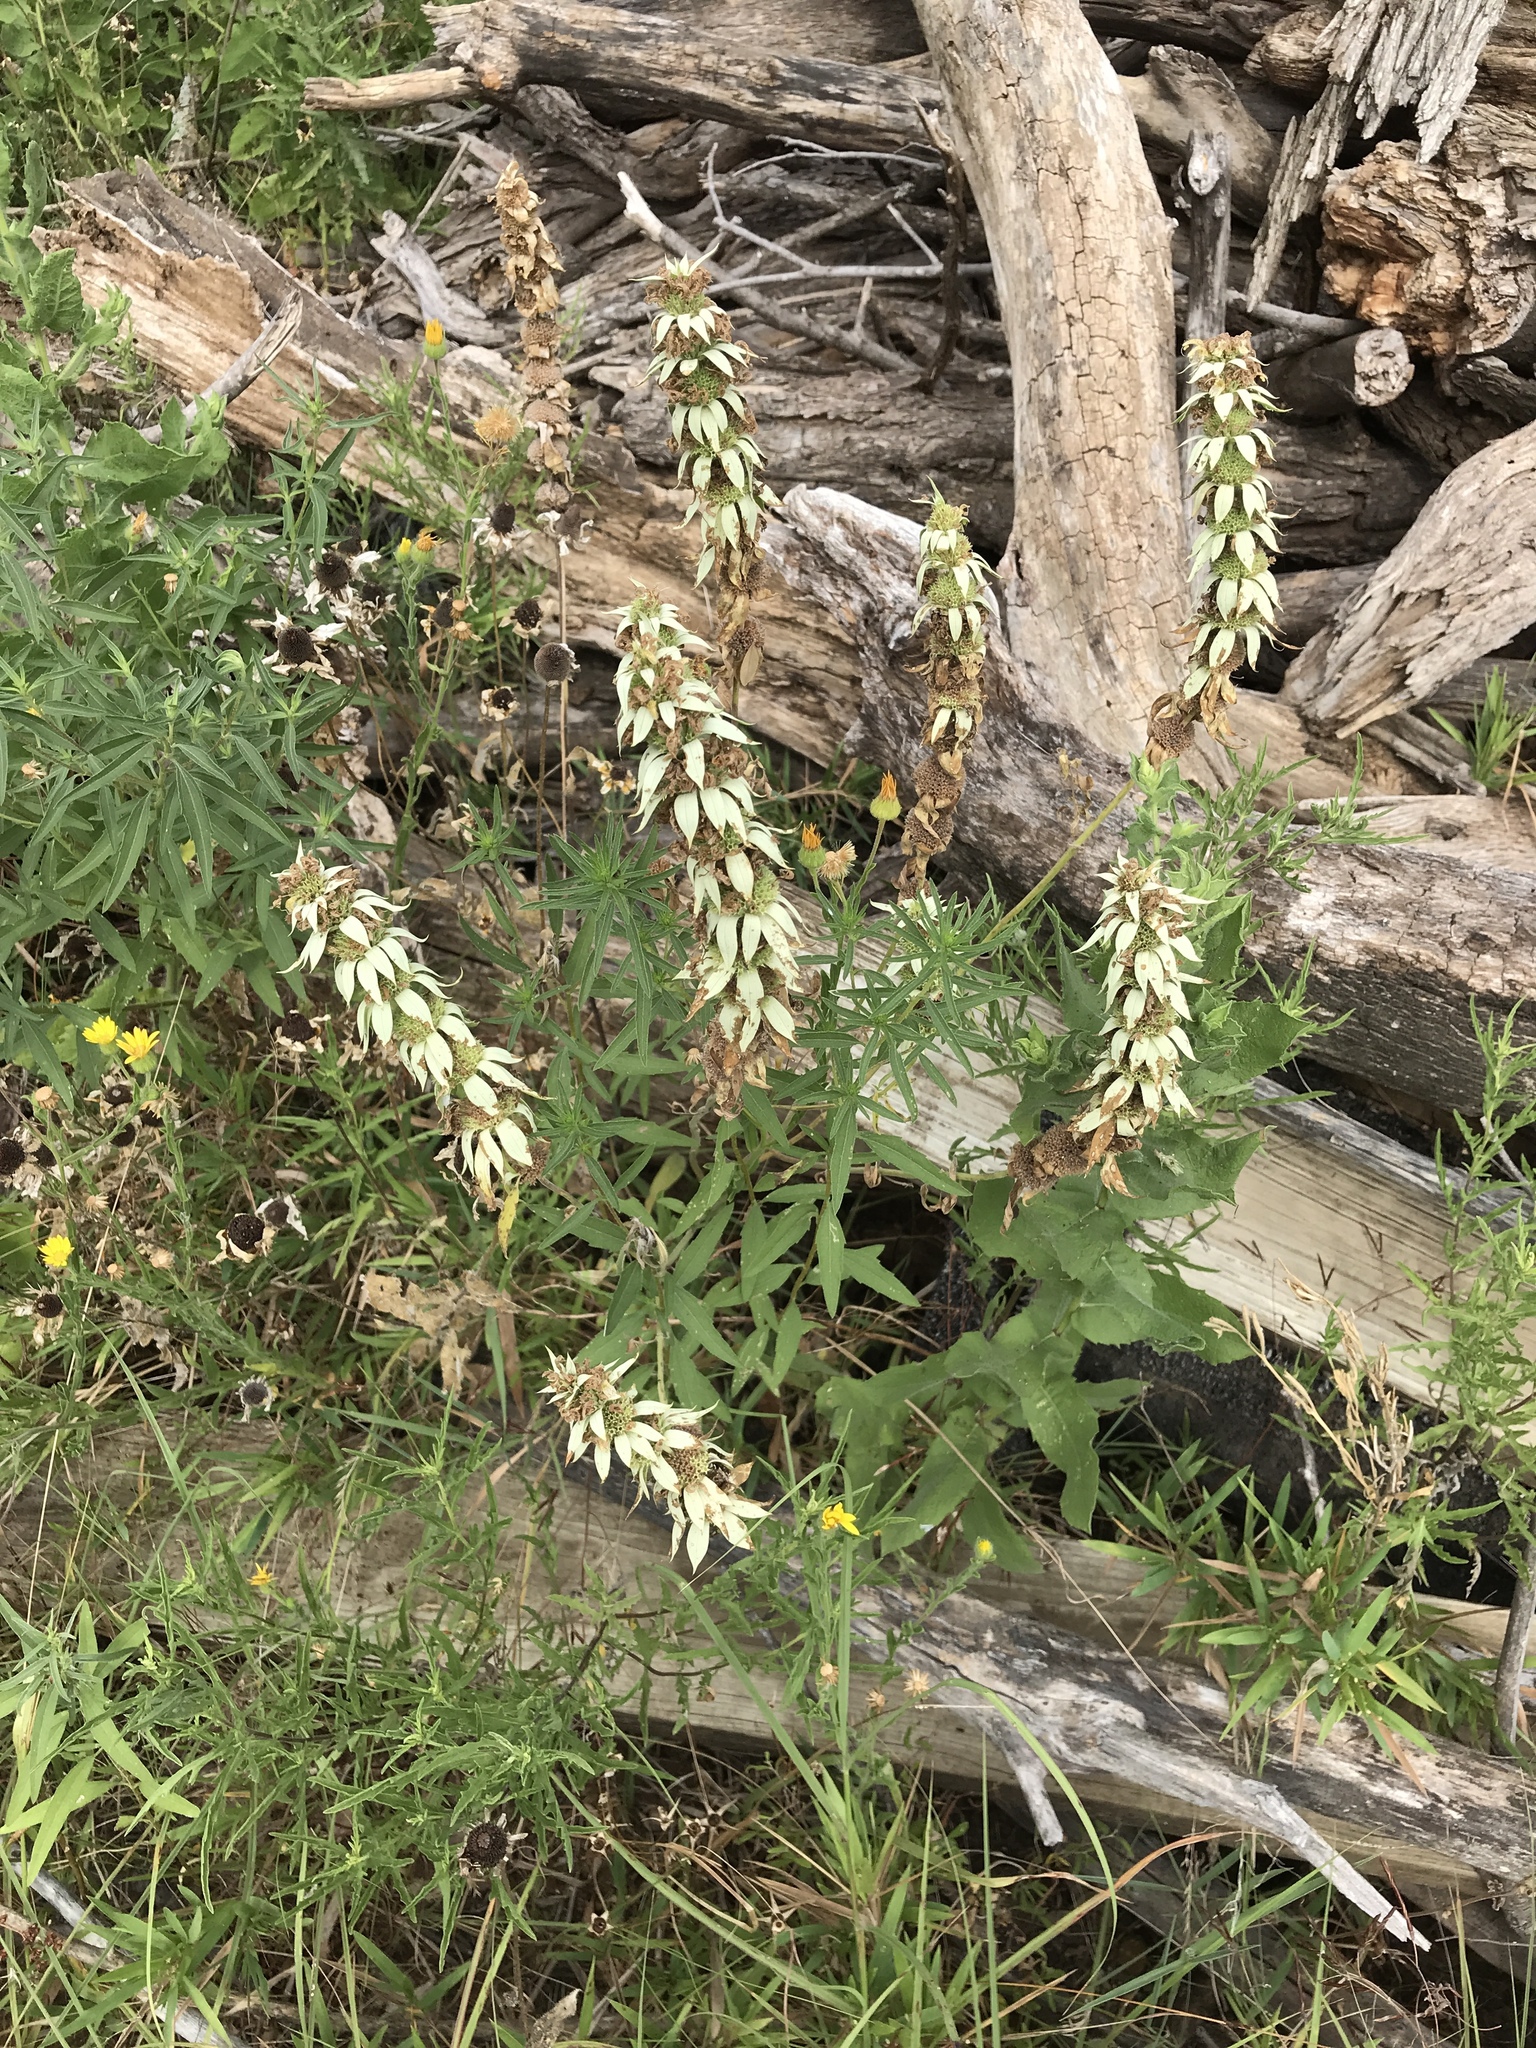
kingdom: Plantae
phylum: Tracheophyta
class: Magnoliopsida
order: Lamiales
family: Lamiaceae
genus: Monarda
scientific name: Monarda punctata
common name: Dotted monarda
